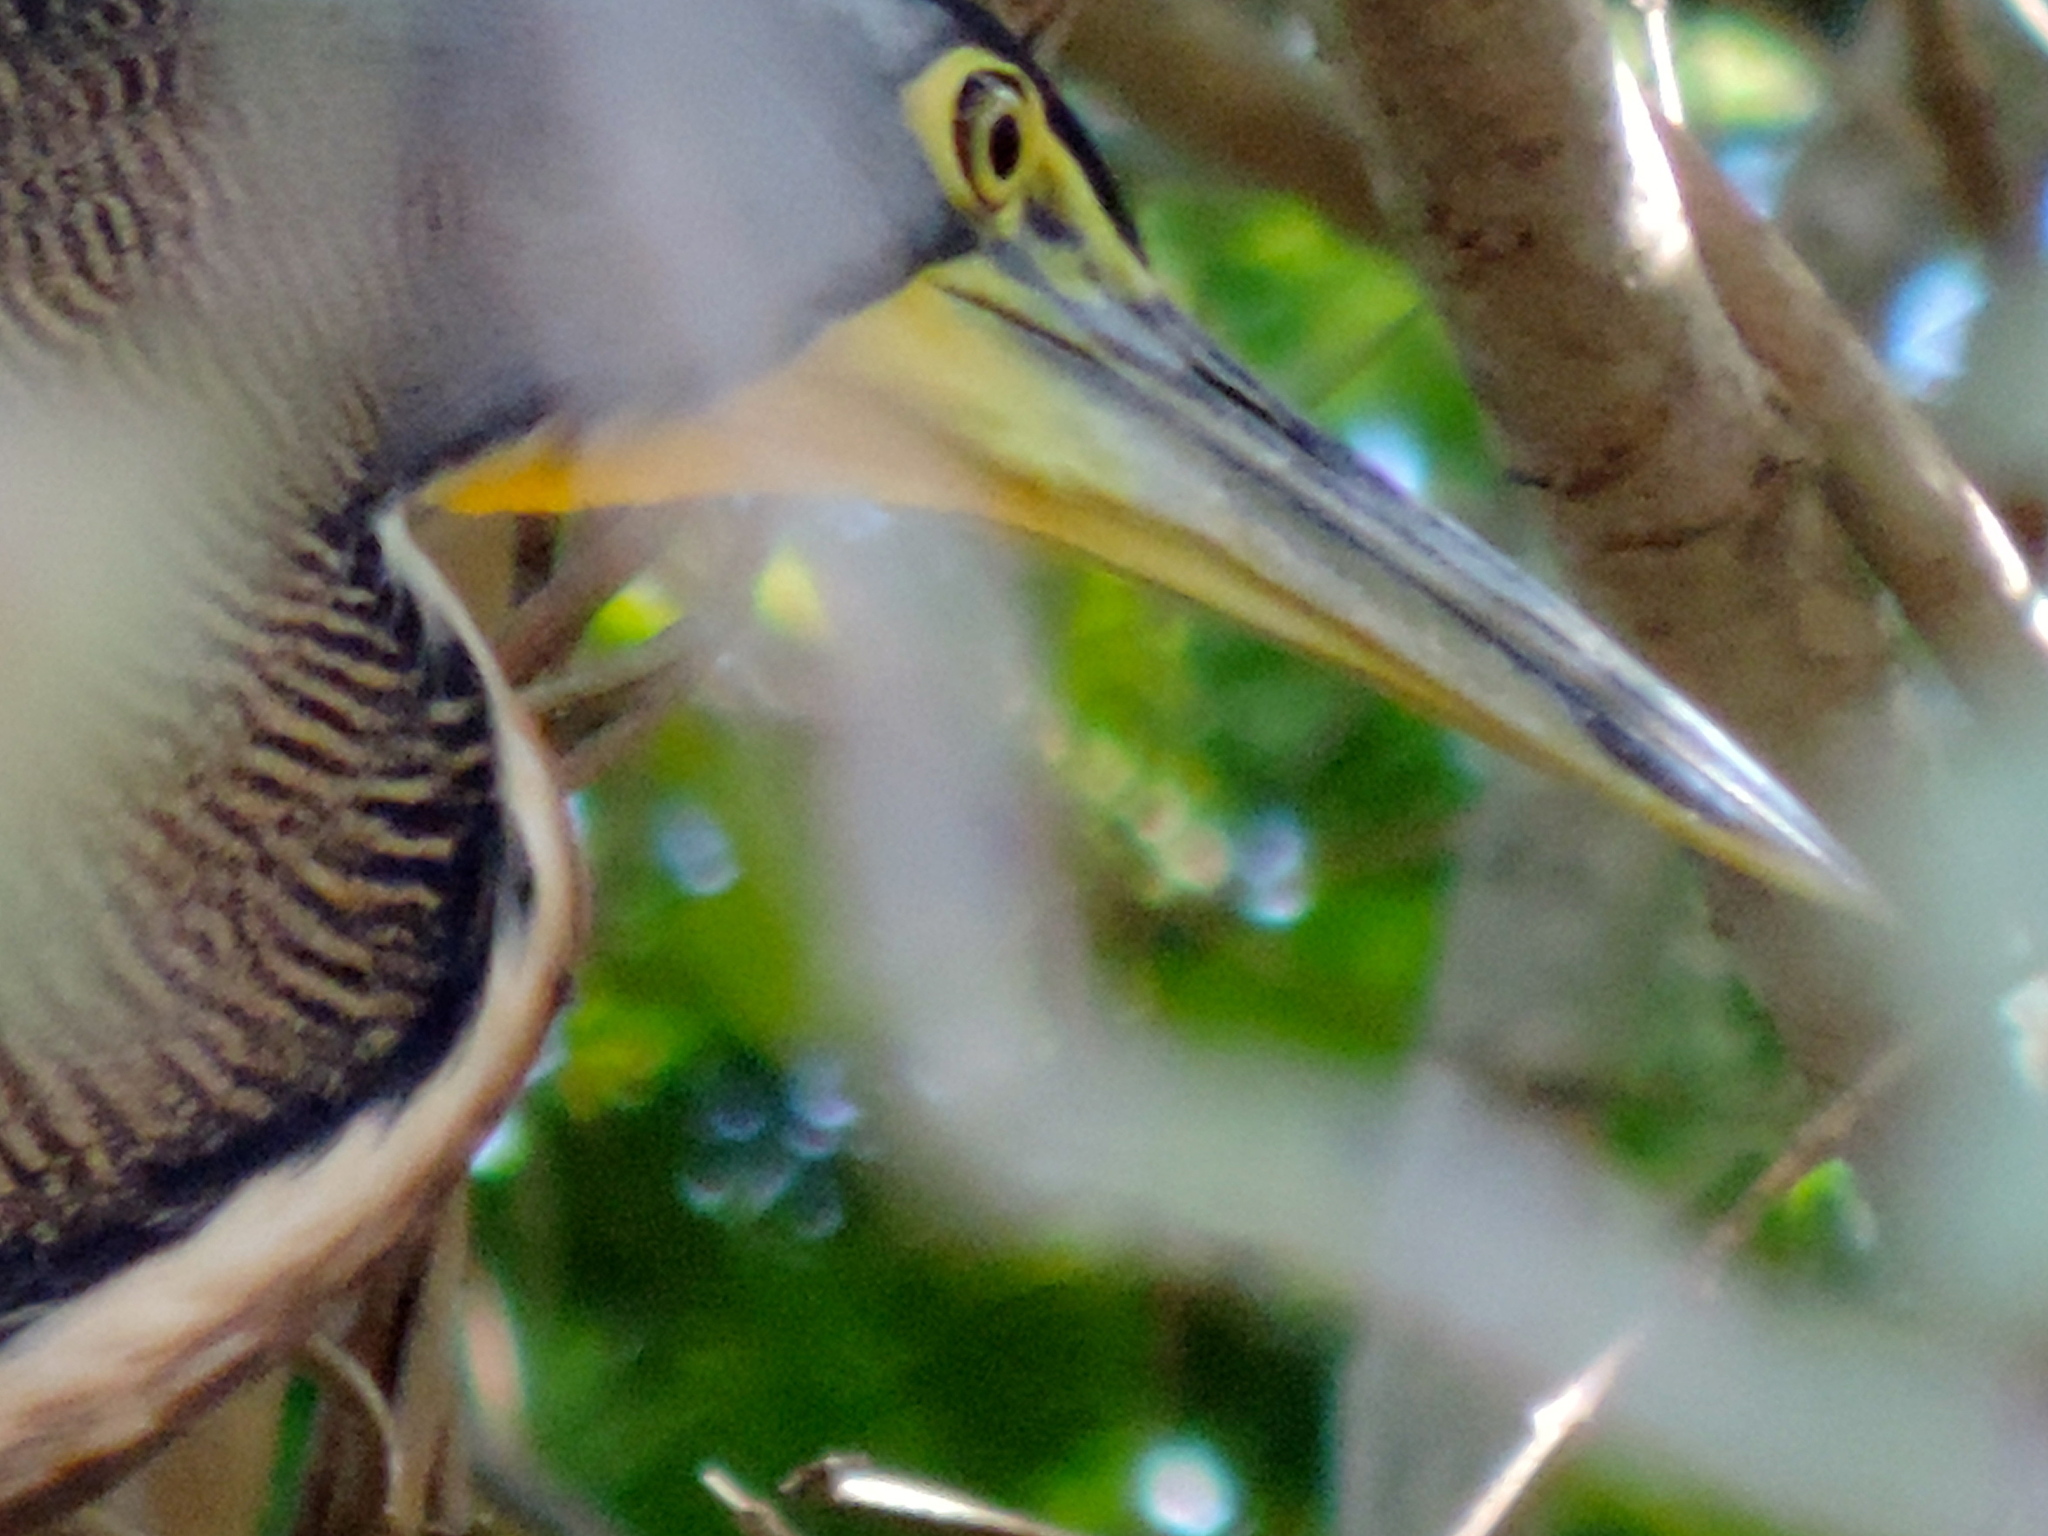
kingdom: Animalia
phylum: Chordata
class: Aves
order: Pelecaniformes
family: Ardeidae
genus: Tigrisoma
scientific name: Tigrisoma mexicanum
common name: Bare-throated tiger-heron
